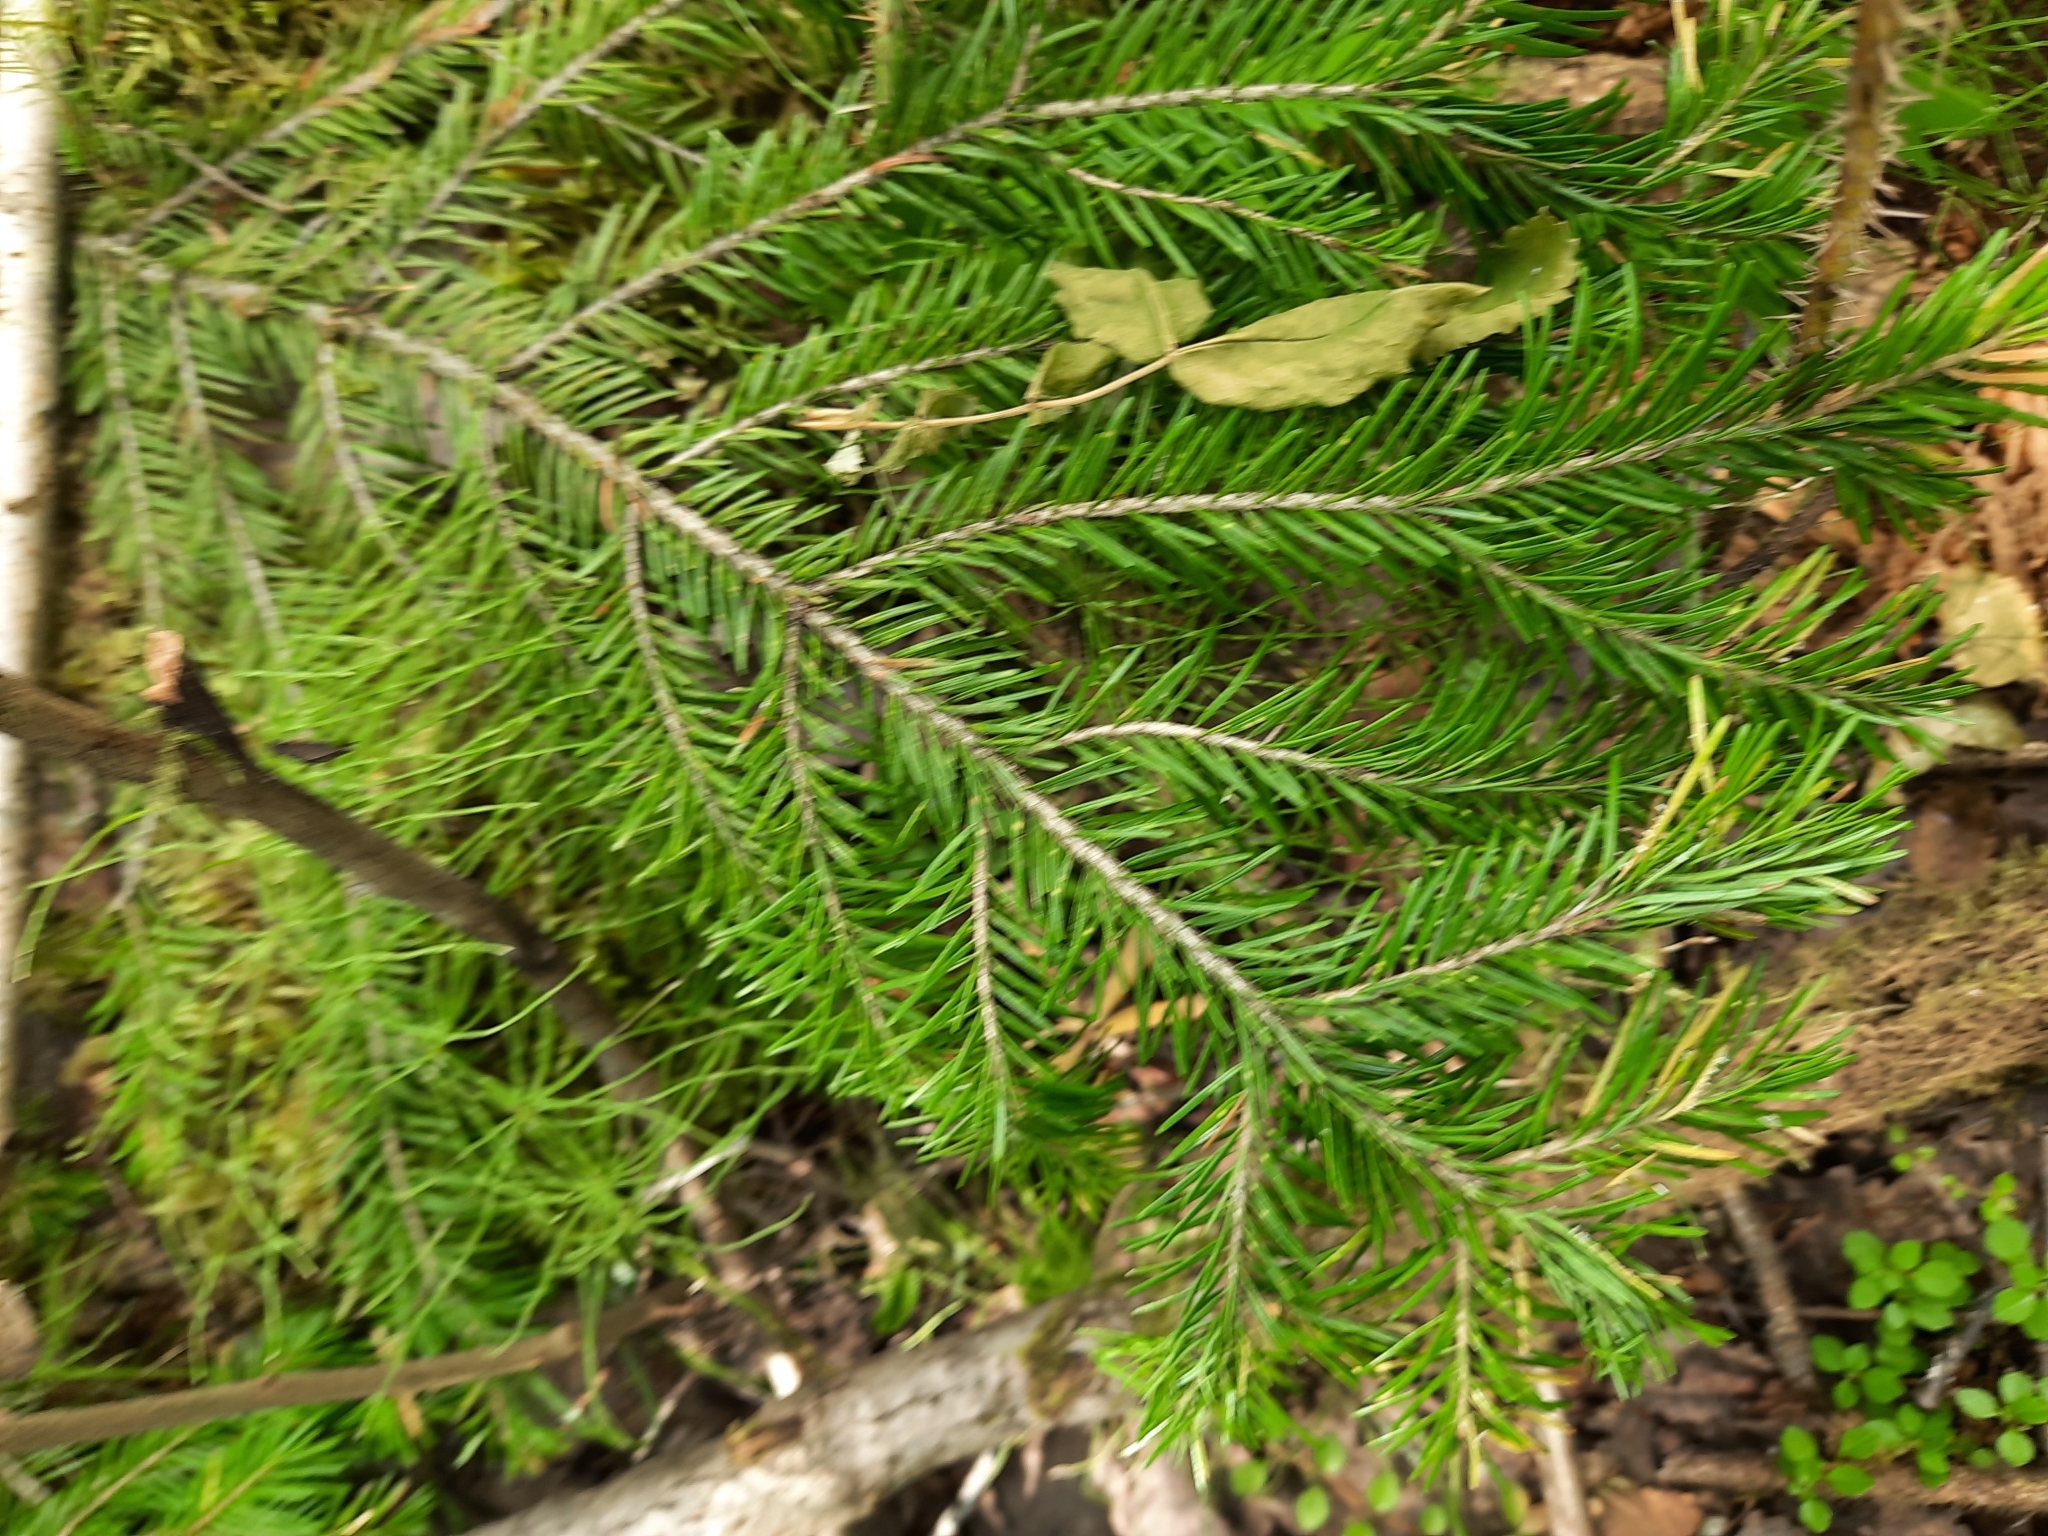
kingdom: Plantae
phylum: Tracheophyta
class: Pinopsida
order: Pinales
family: Pinaceae
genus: Abies
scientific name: Abies sibirica
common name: Siberian fir
